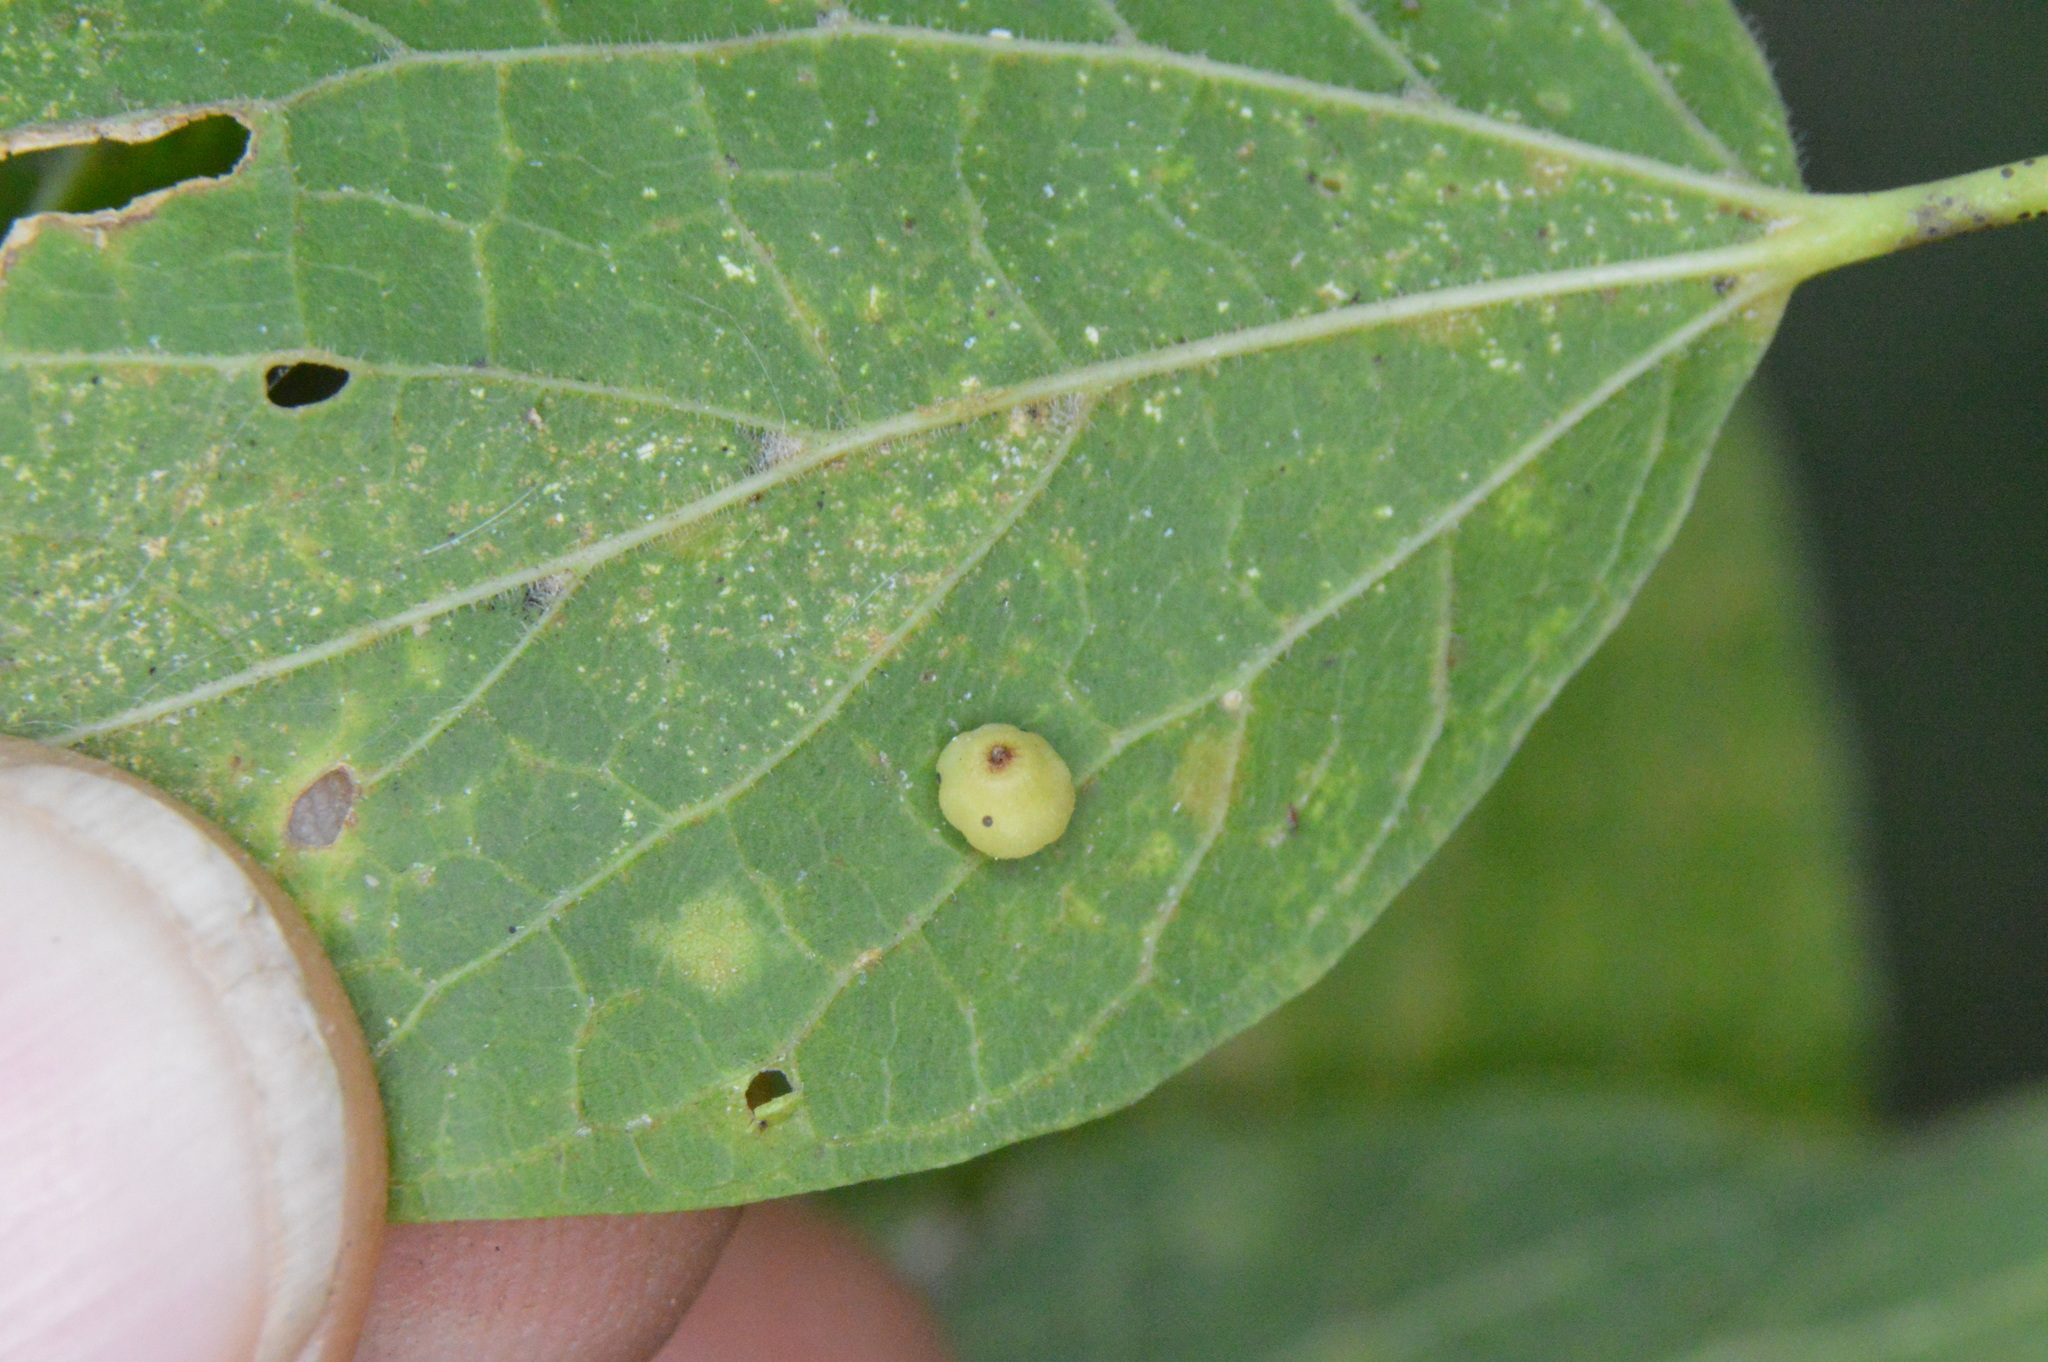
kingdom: Animalia
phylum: Arthropoda
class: Insecta
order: Diptera
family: Cecidomyiidae
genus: Celticecis
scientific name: Celticecis globosa
